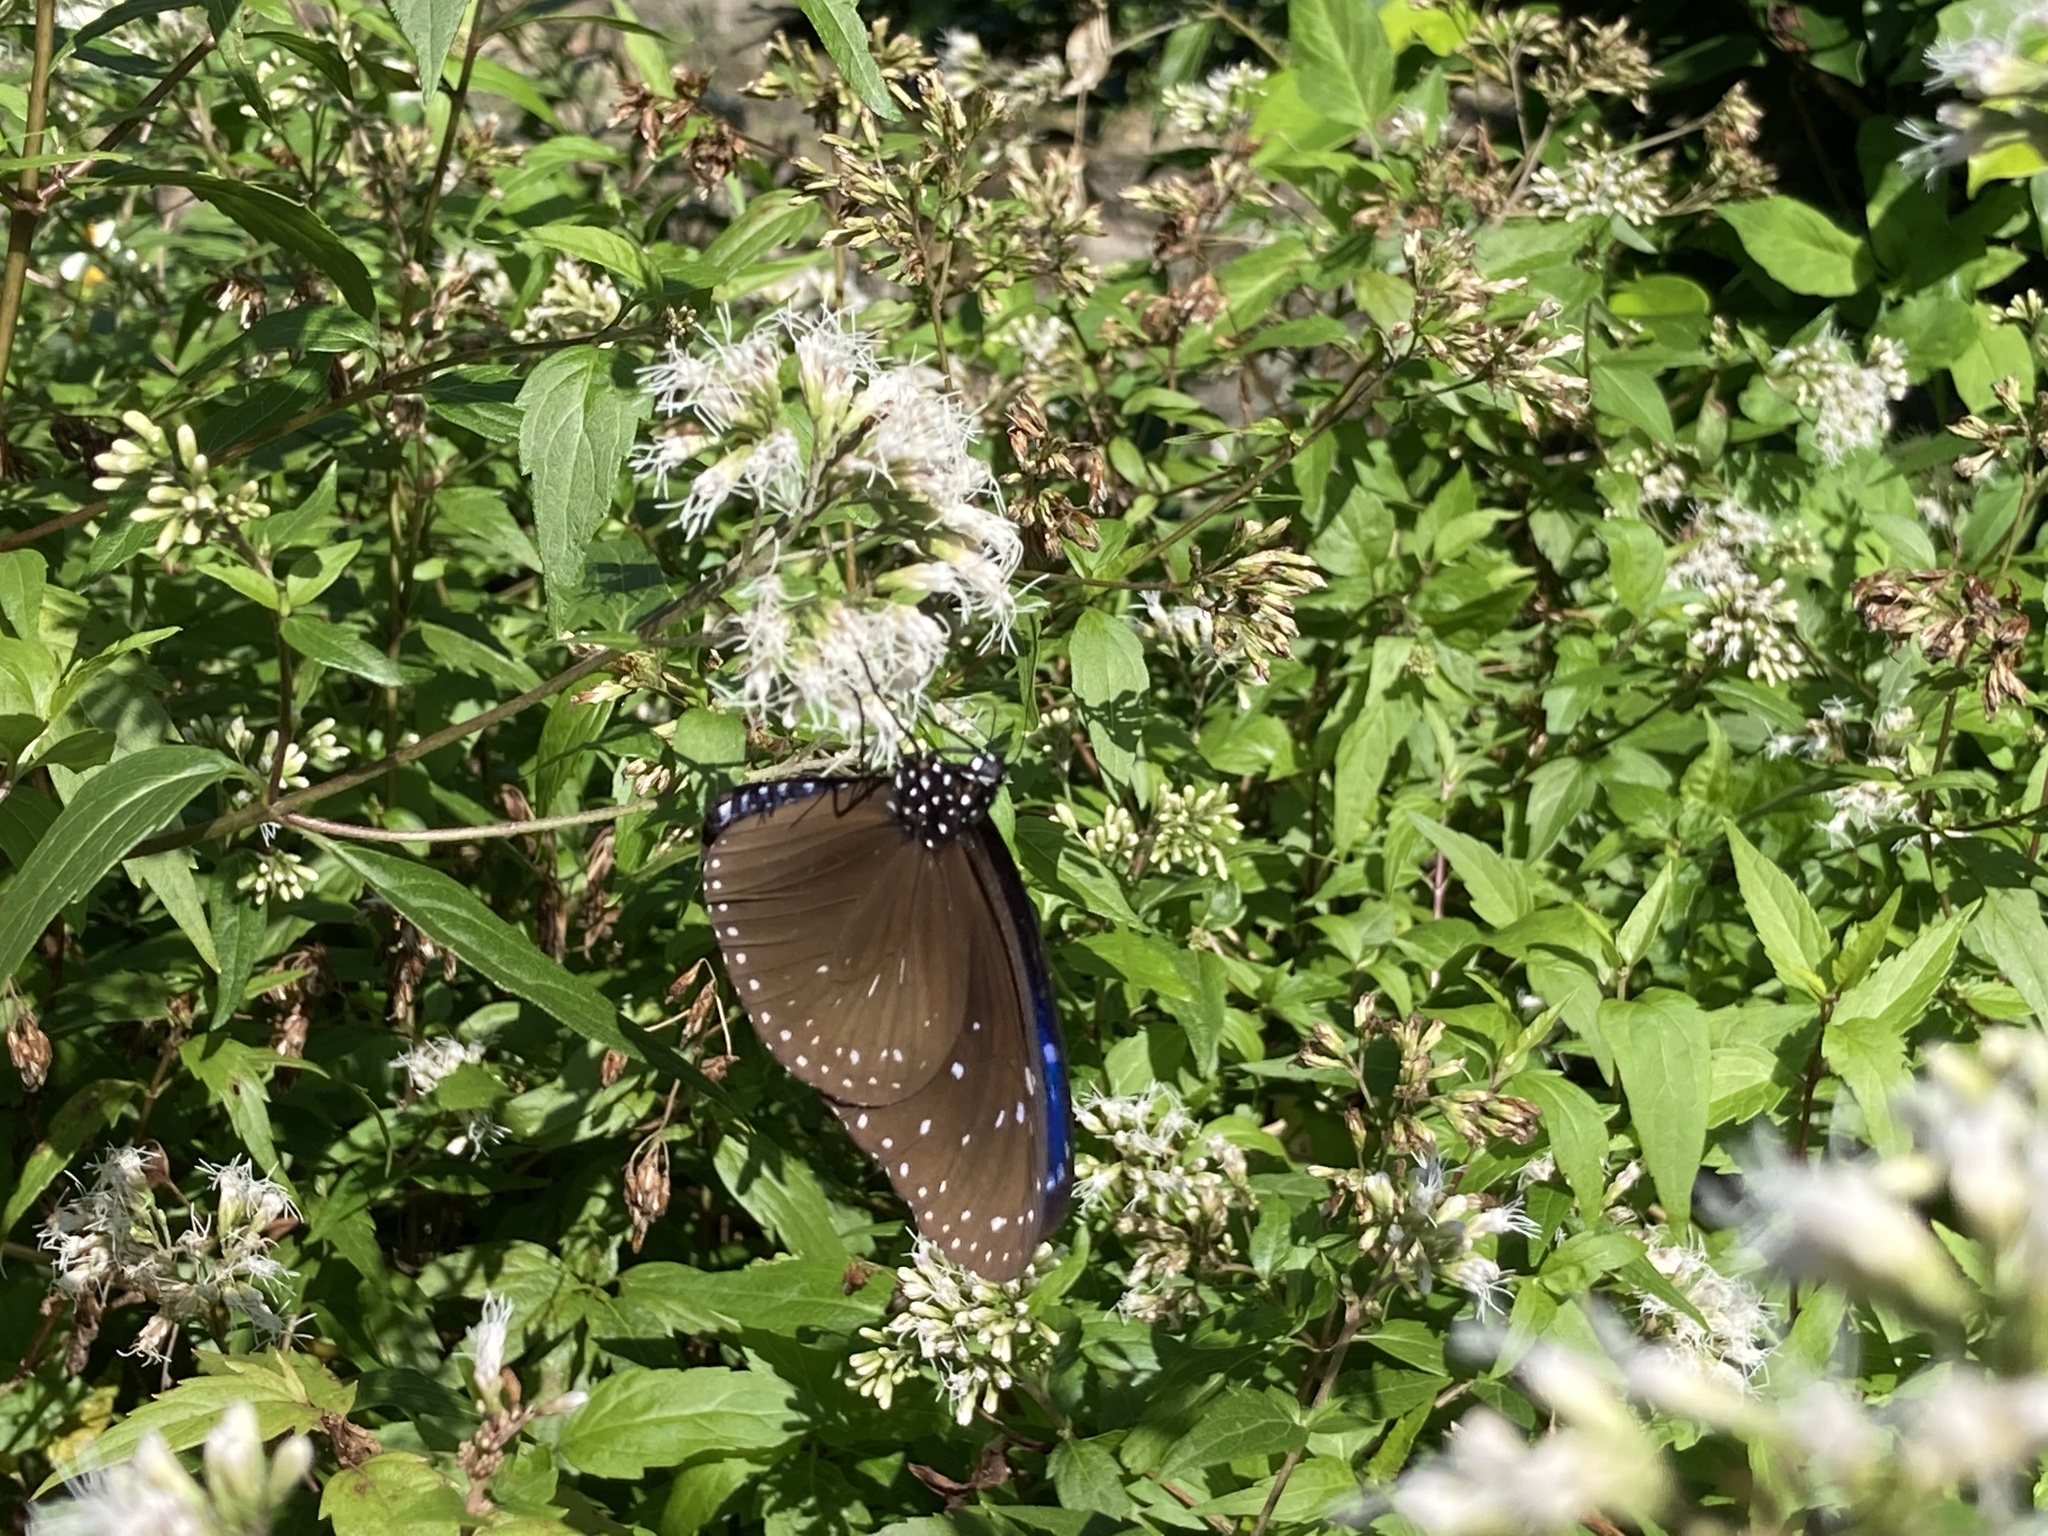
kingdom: Animalia
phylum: Arthropoda
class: Insecta
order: Lepidoptera
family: Nymphalidae
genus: Euploea
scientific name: Euploea mulciber
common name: Striped blue crow butterfly
